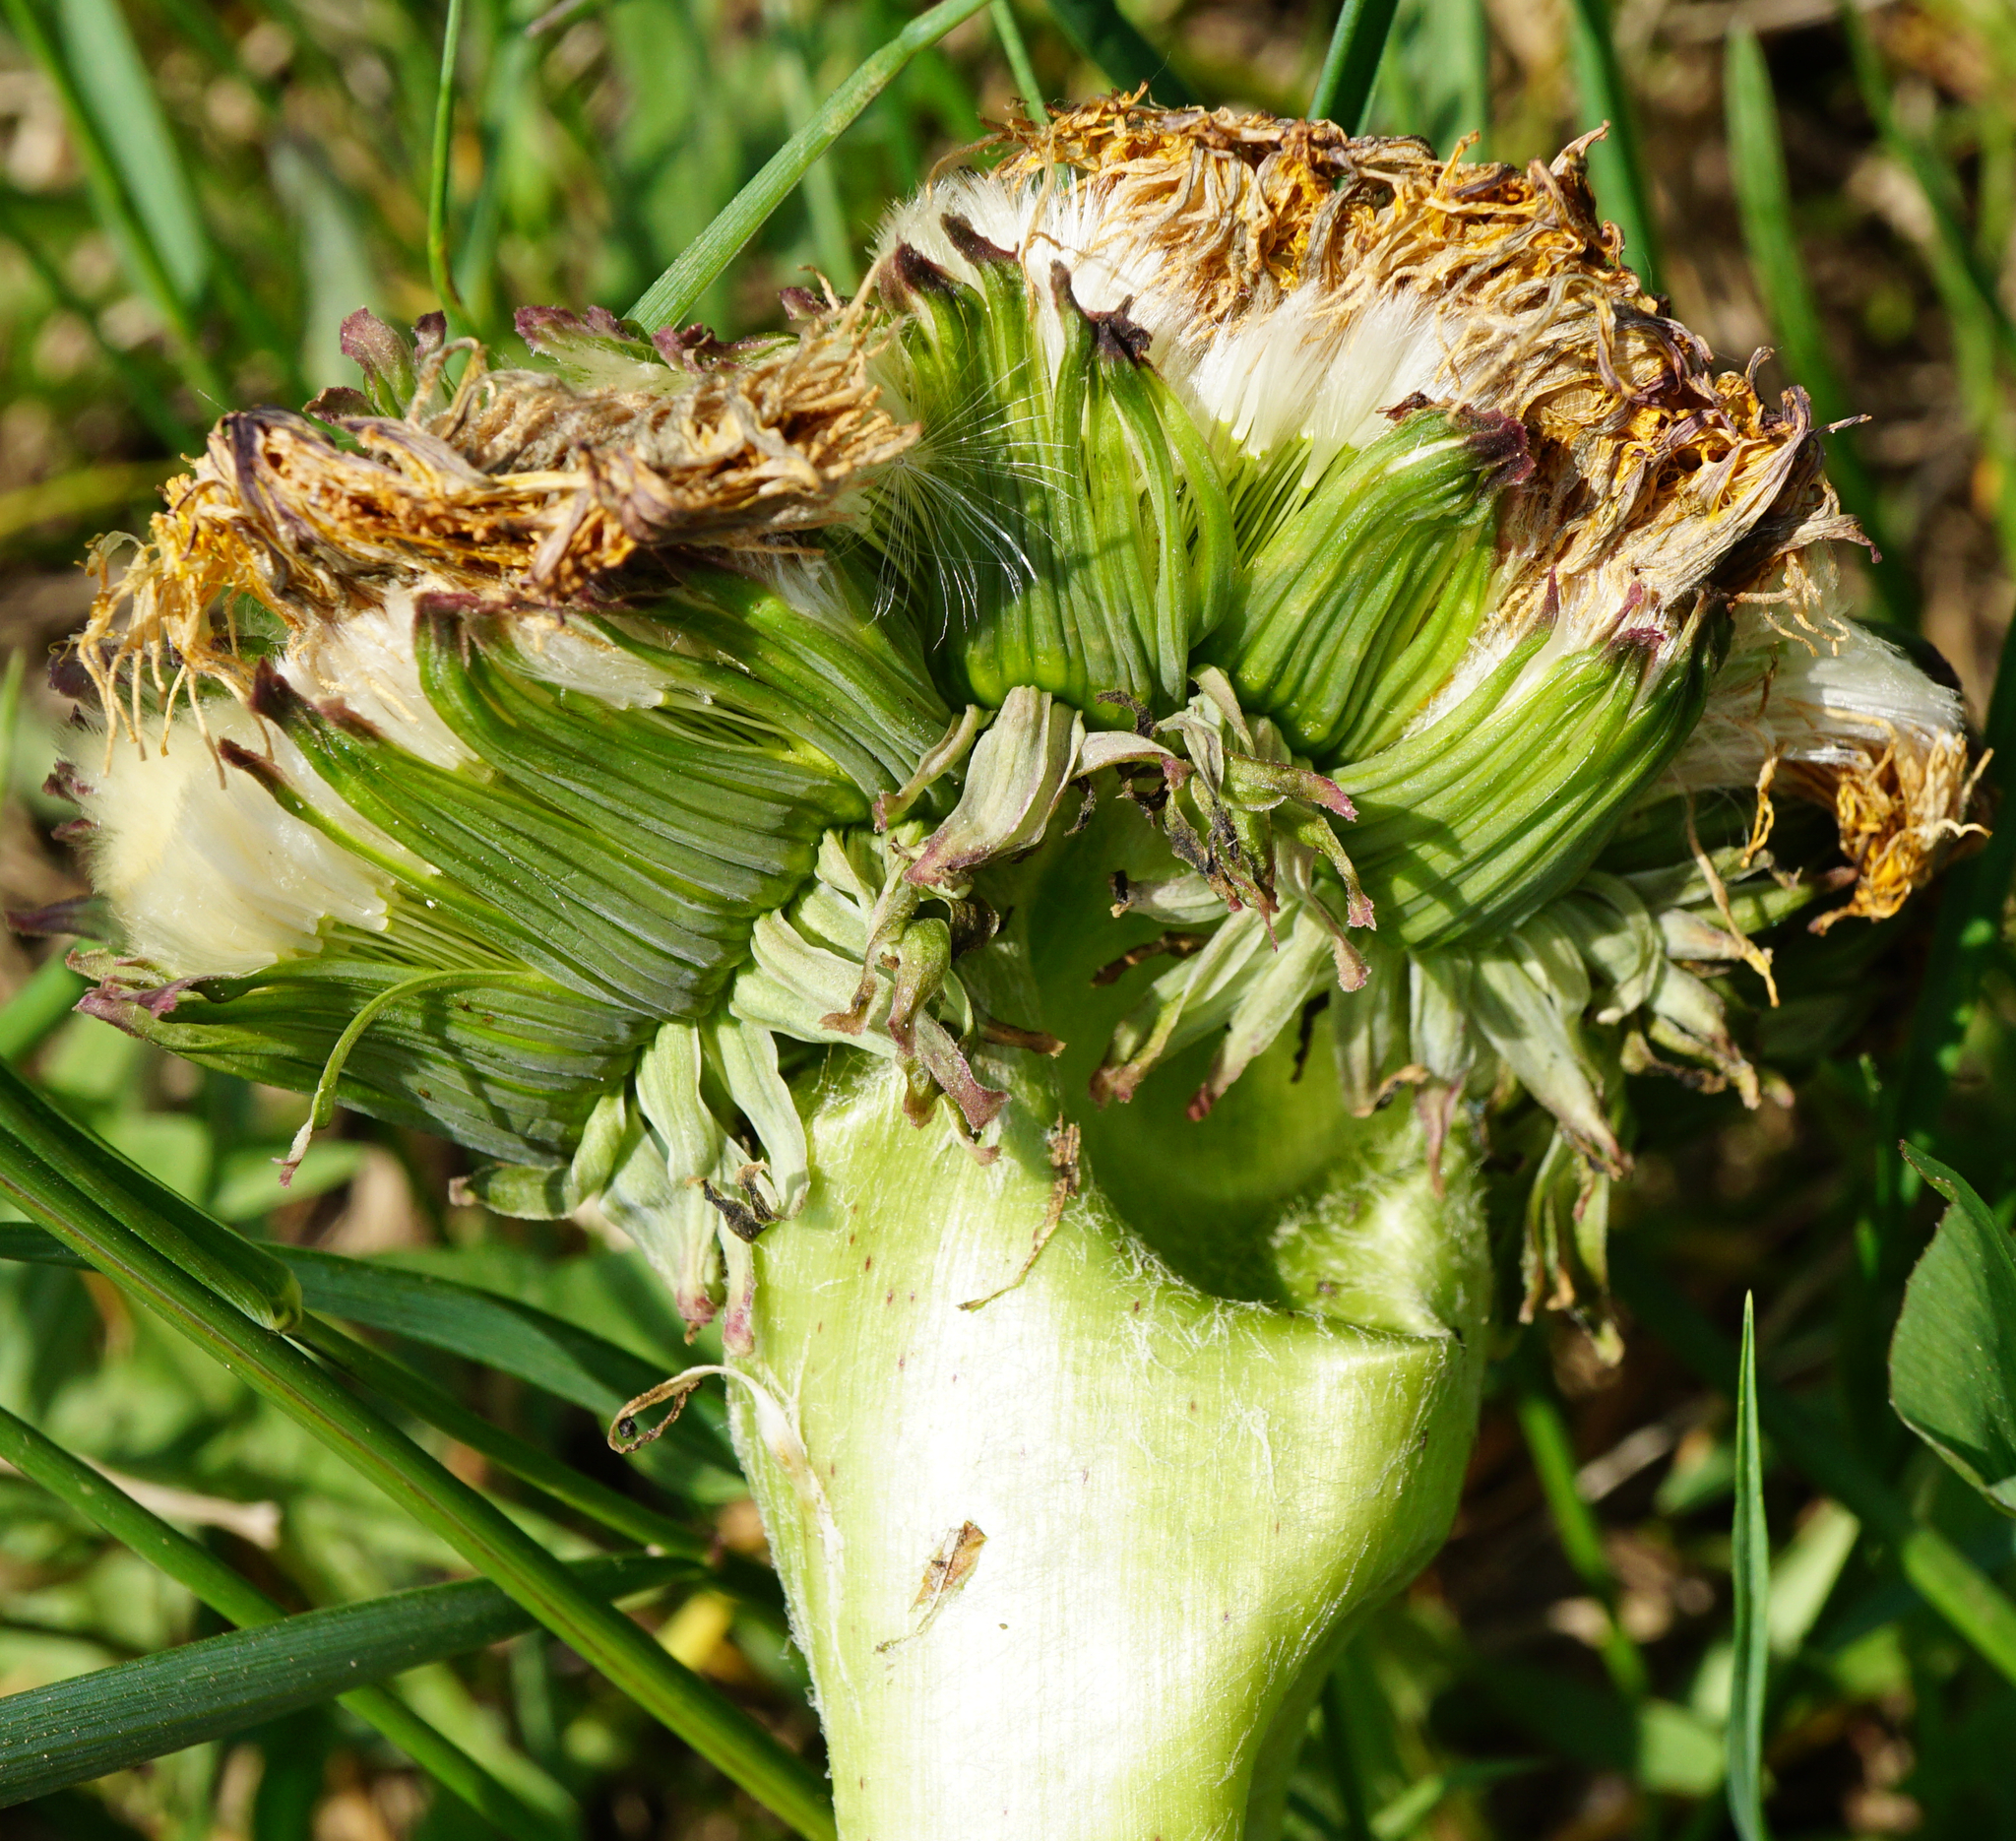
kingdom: Plantae
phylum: Tracheophyta
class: Magnoliopsida
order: Asterales
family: Asteraceae
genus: Taraxacum
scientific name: Taraxacum
